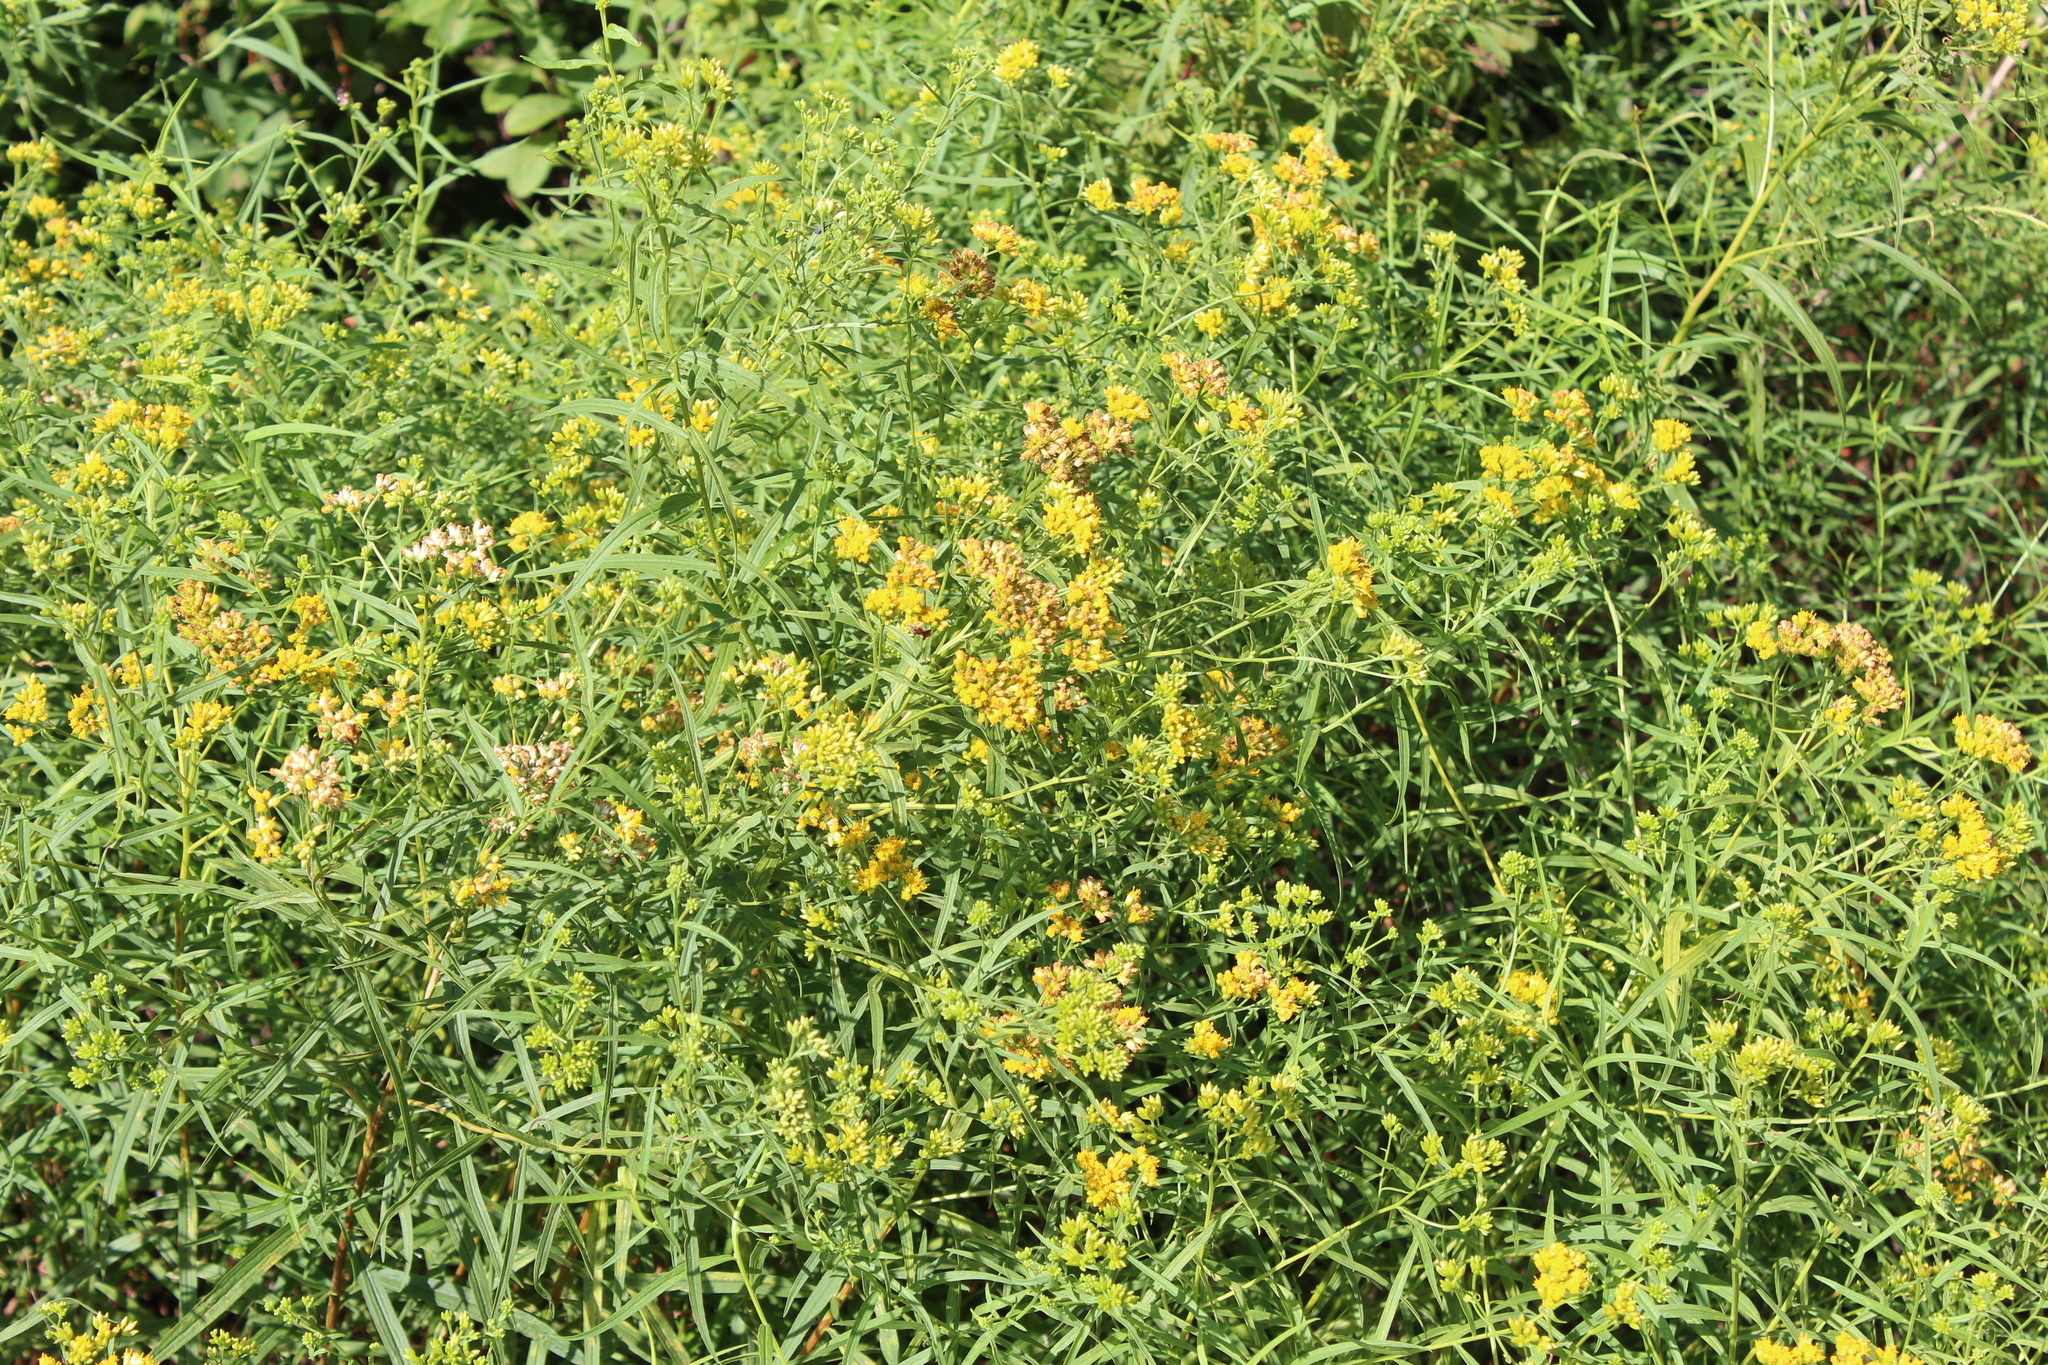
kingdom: Plantae
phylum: Tracheophyta
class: Magnoliopsida
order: Asterales
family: Asteraceae
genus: Euthamia
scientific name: Euthamia graminifolia
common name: Common goldentop
